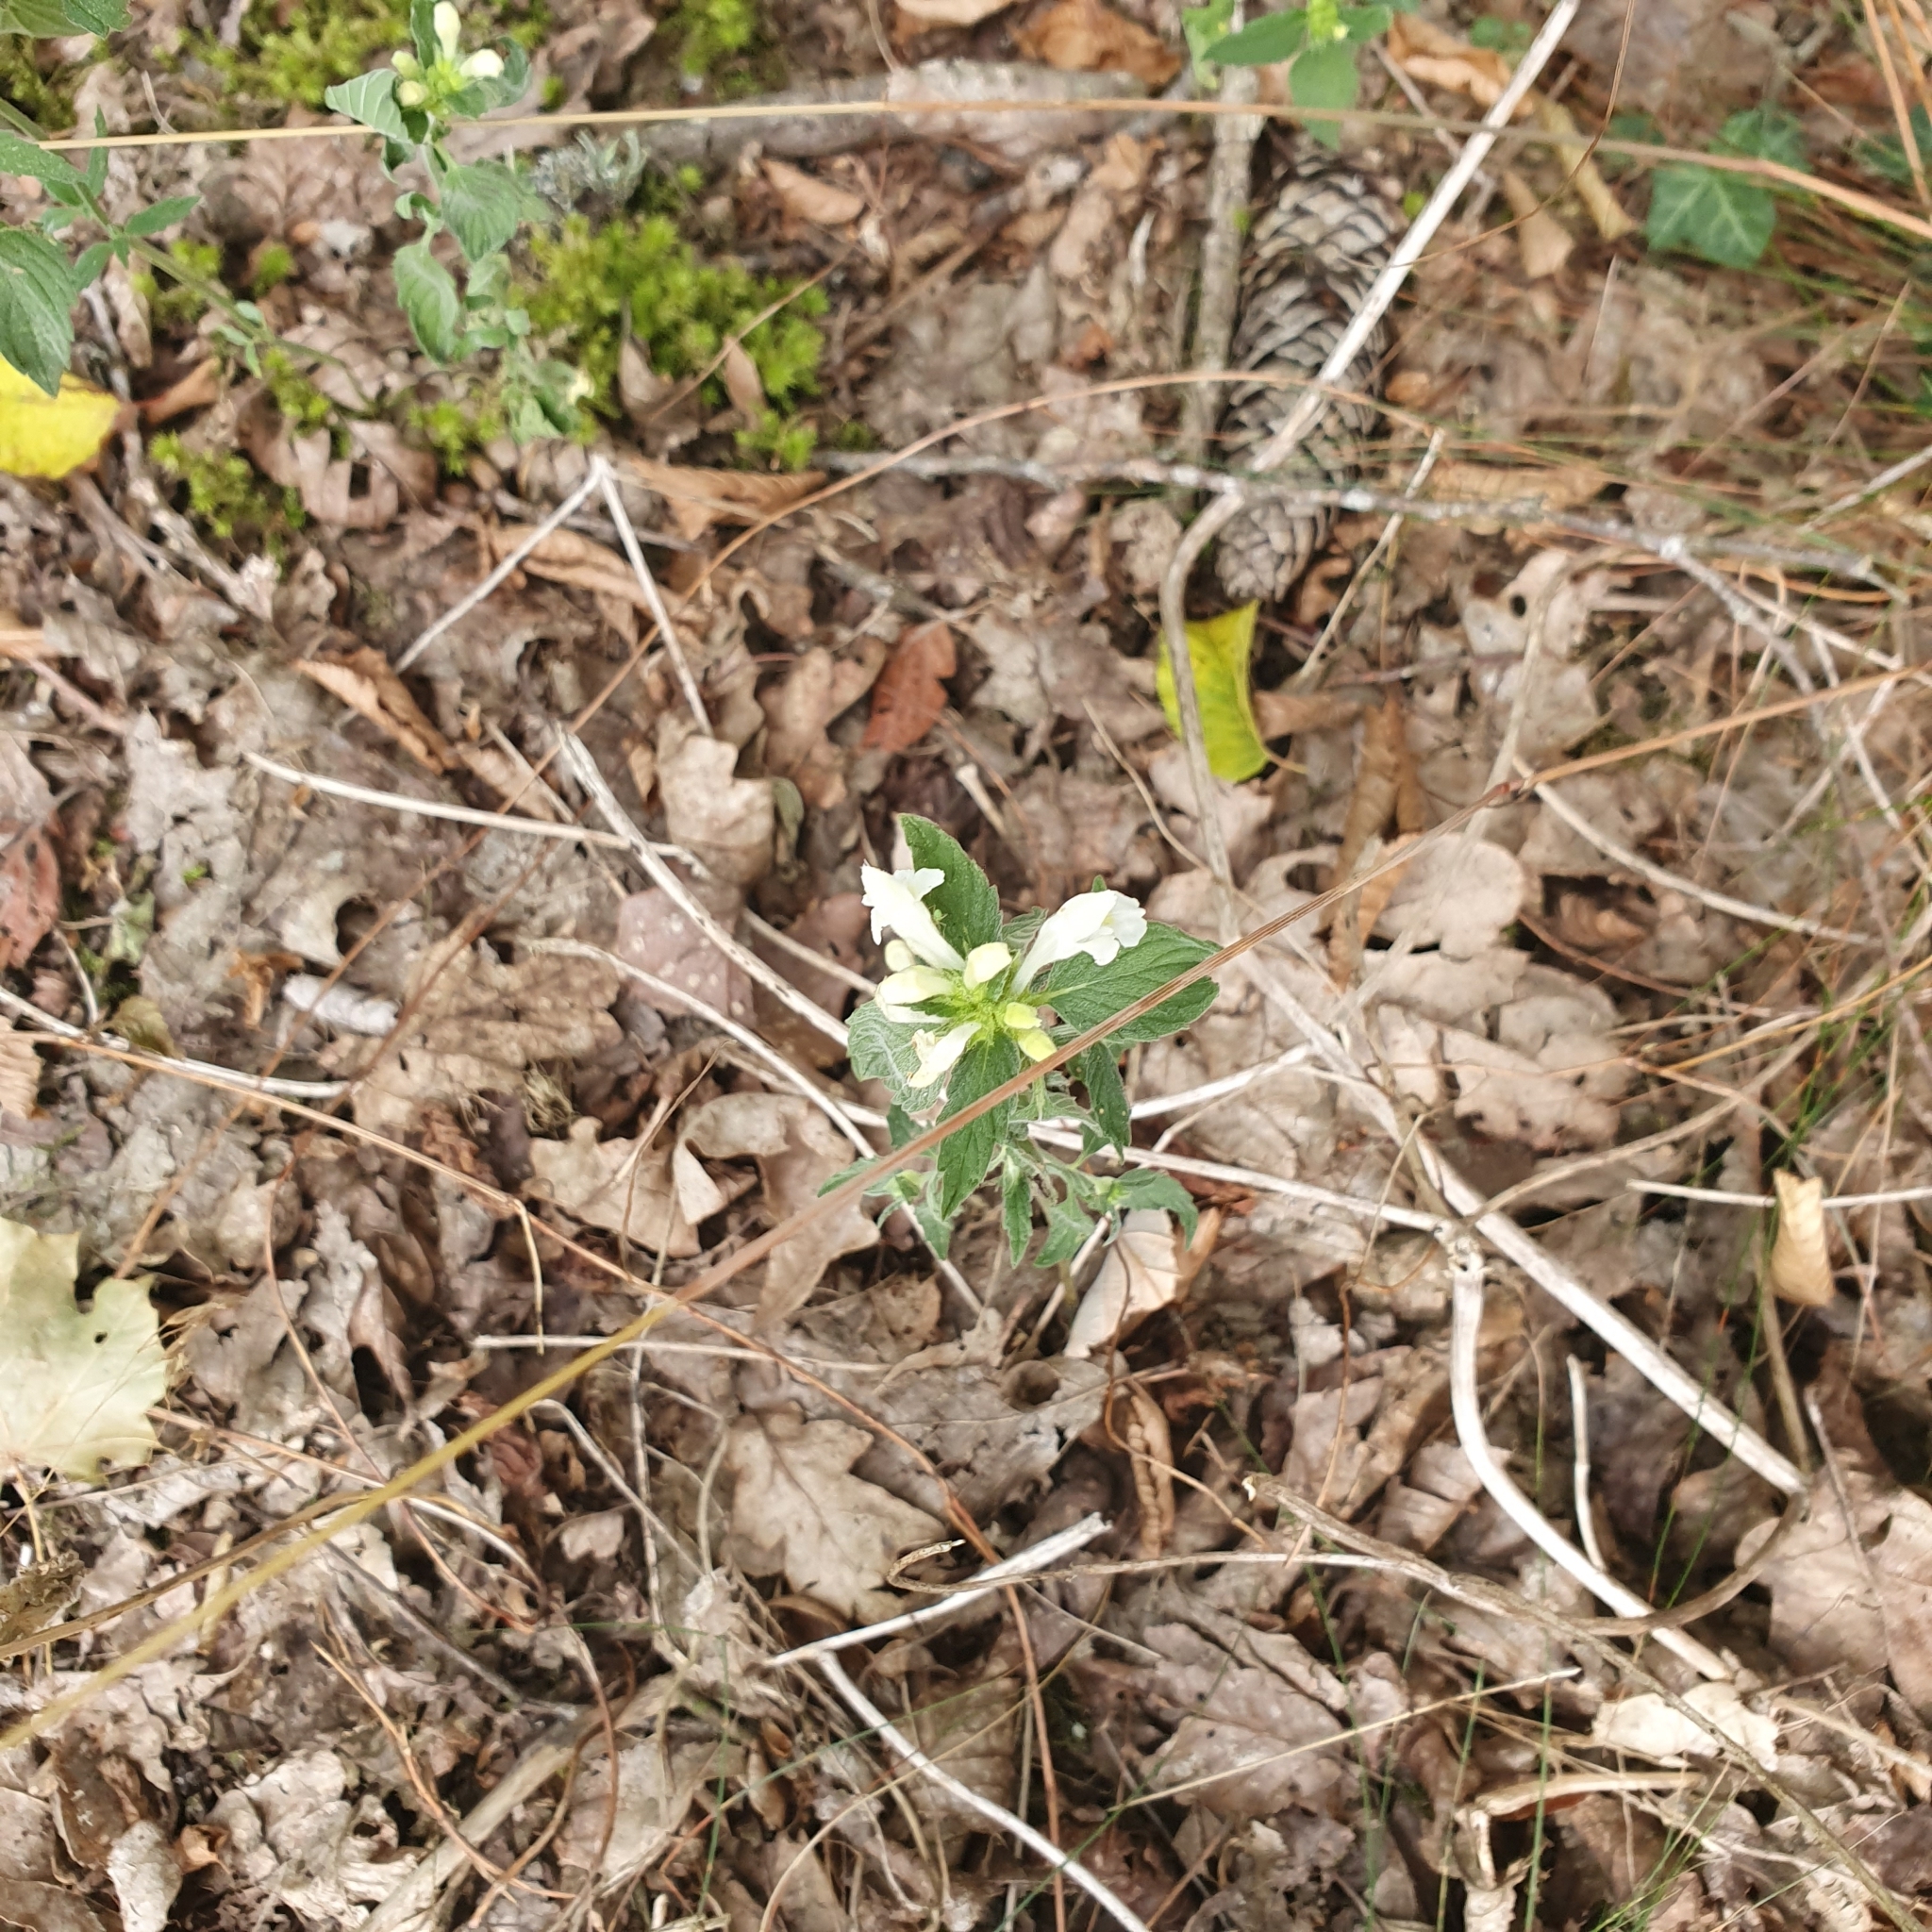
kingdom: Plantae
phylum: Tracheophyta
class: Magnoliopsida
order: Lamiales
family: Lamiaceae
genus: Galeopsis
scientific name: Galeopsis segetum
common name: Downy hemp-nettle
